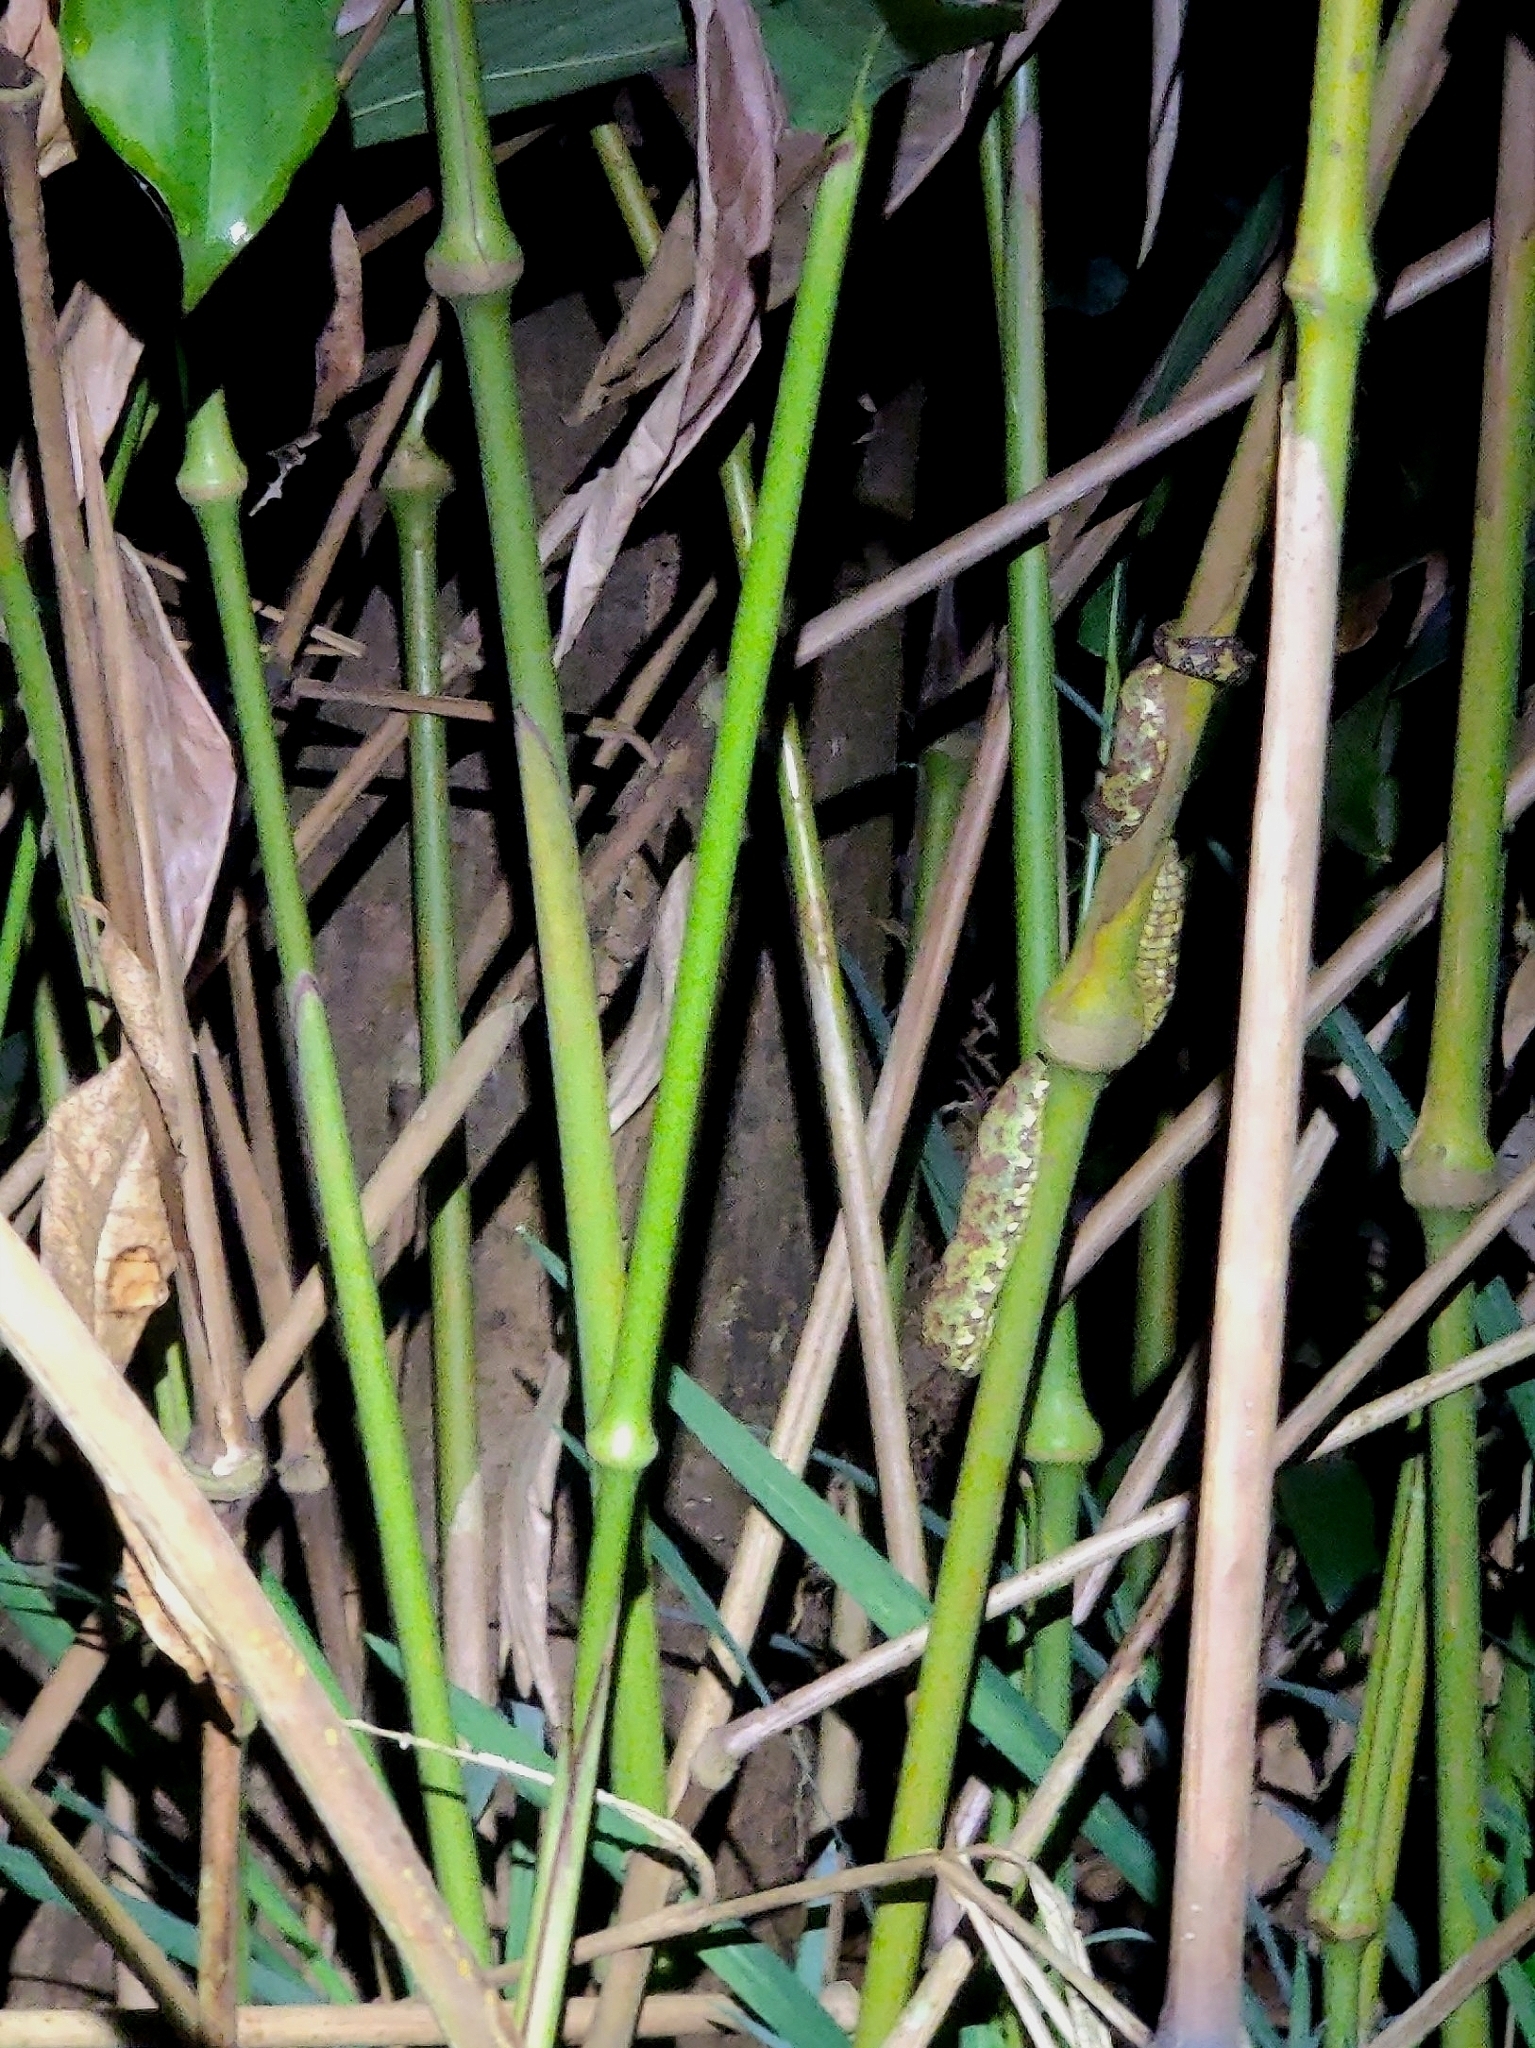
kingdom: Animalia
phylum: Chordata
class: Squamata
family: Viperidae
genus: Craspedocephalus
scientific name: Craspedocephalus malabaricus
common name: Malabarian pit viper
